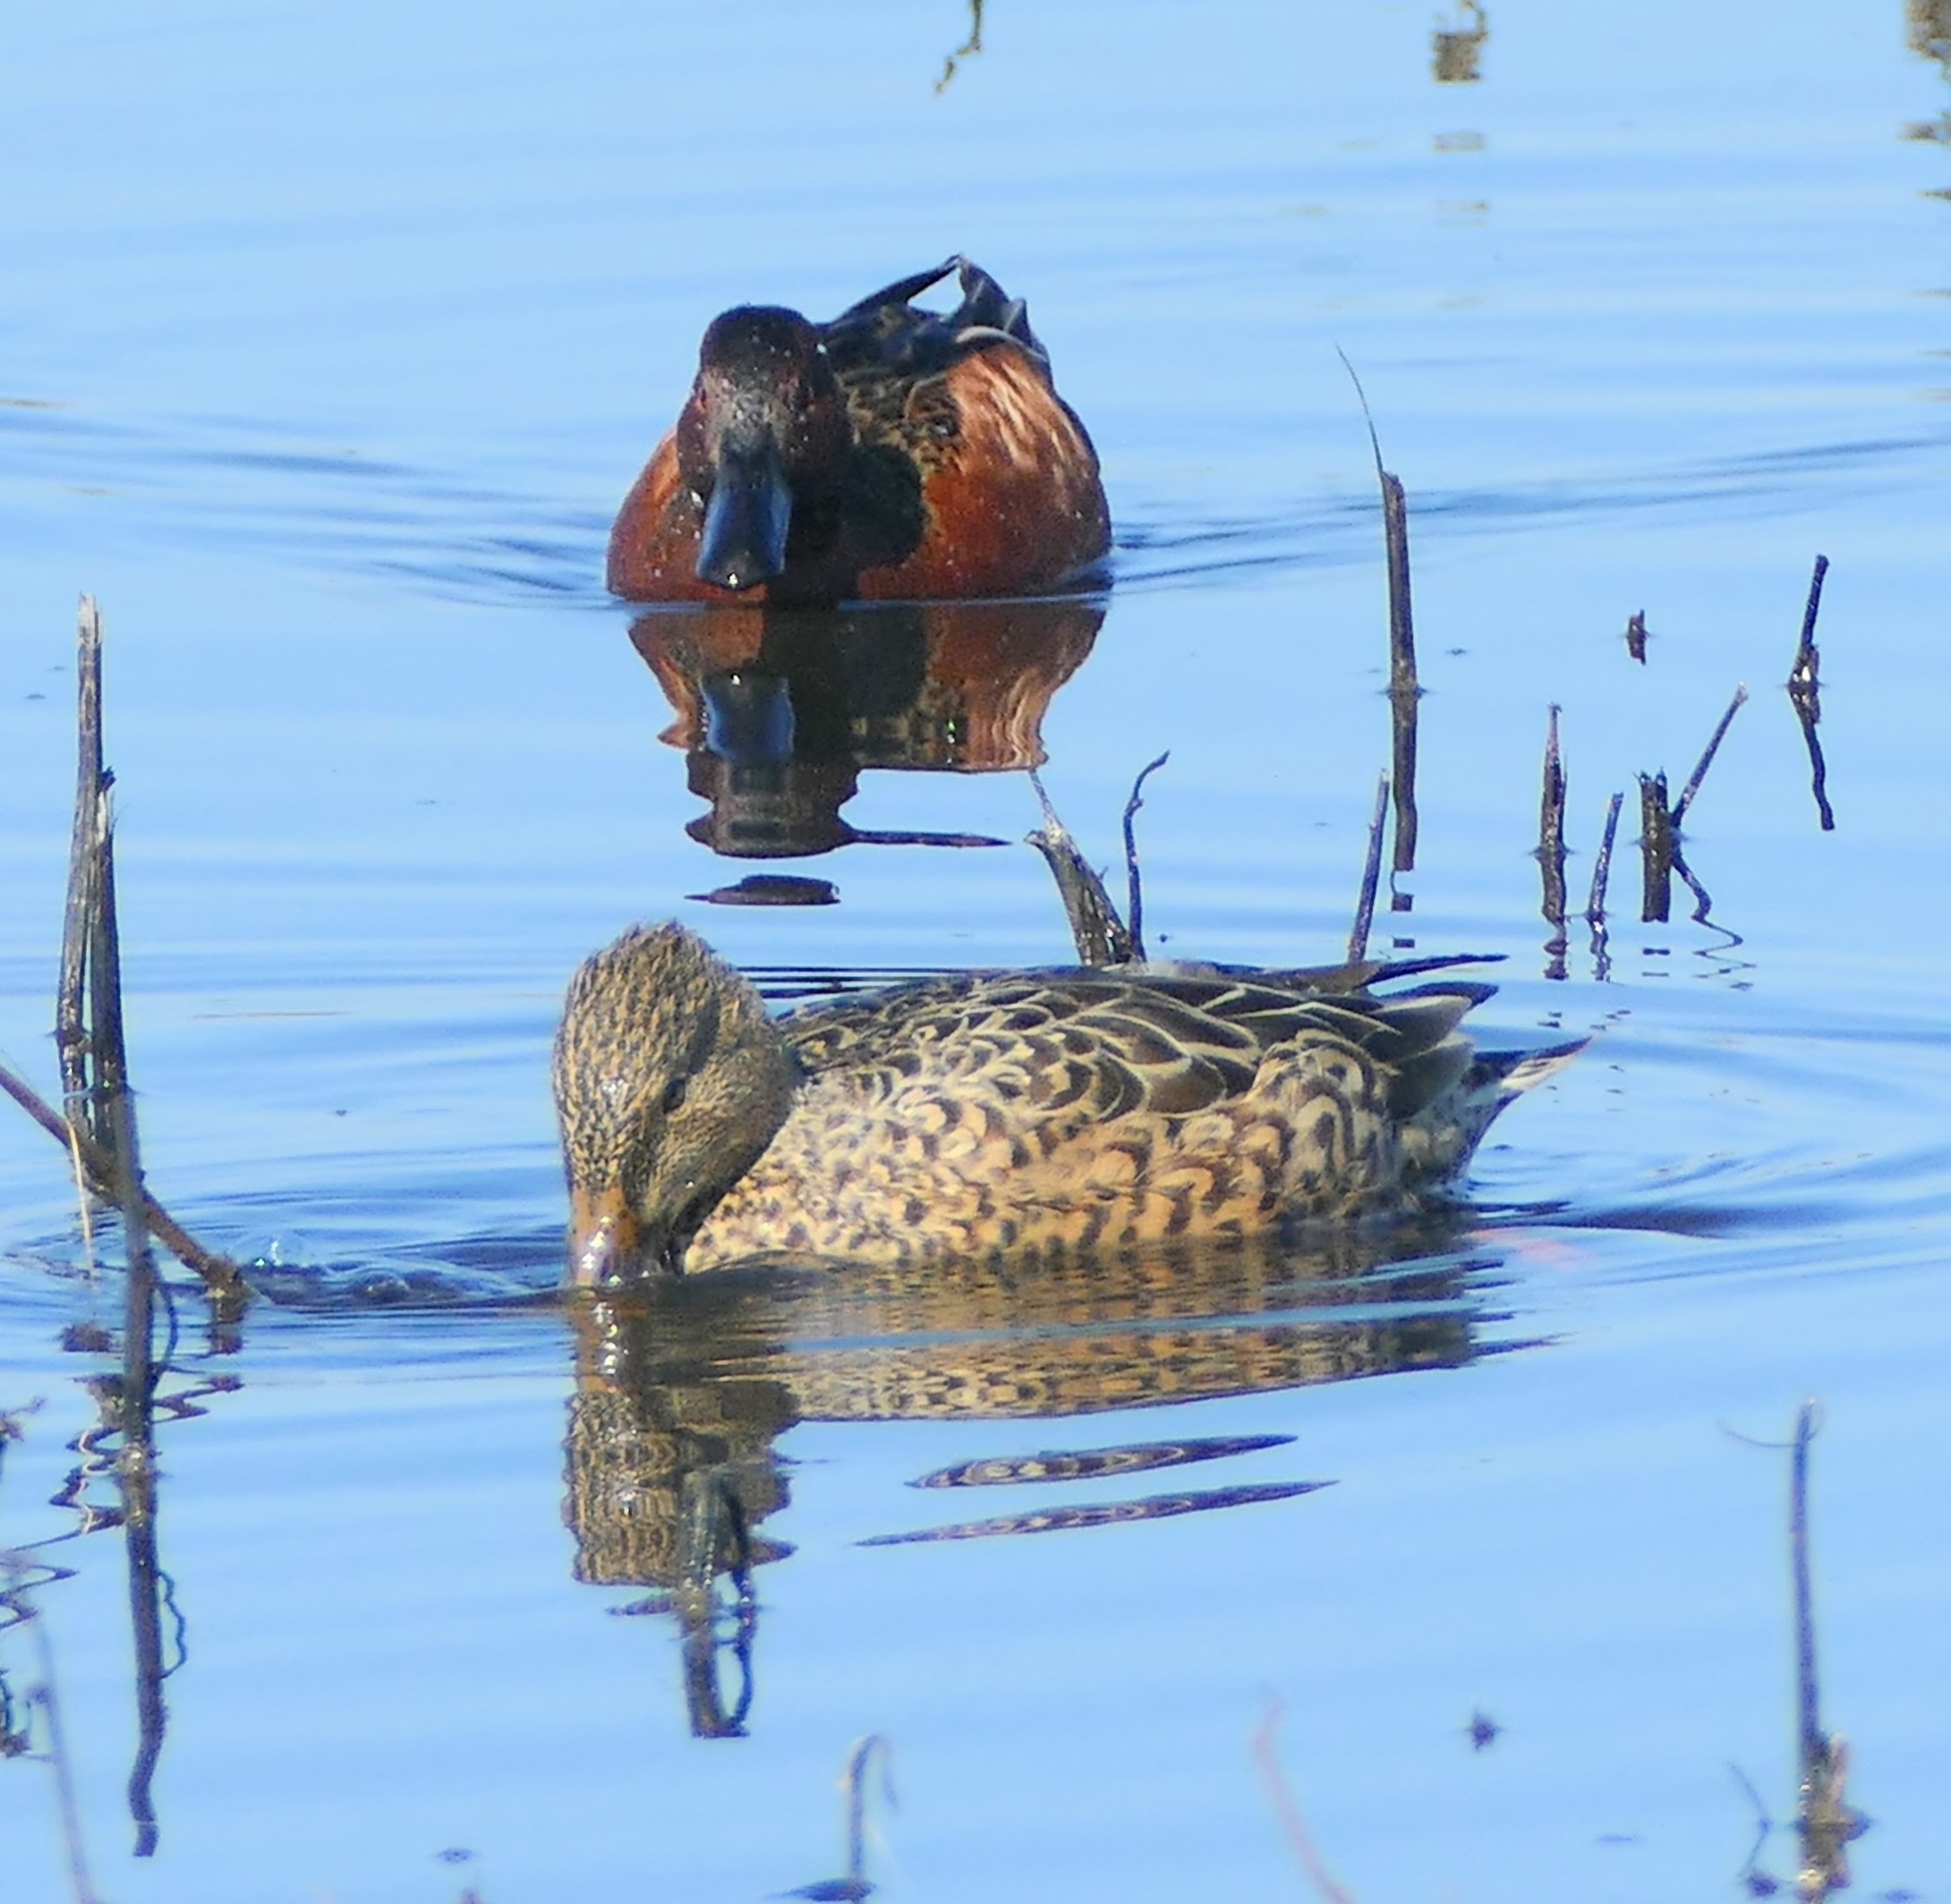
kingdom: Animalia
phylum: Chordata
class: Aves
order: Anseriformes
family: Anatidae
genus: Spatula
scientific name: Spatula cyanoptera
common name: Cinnamon teal
